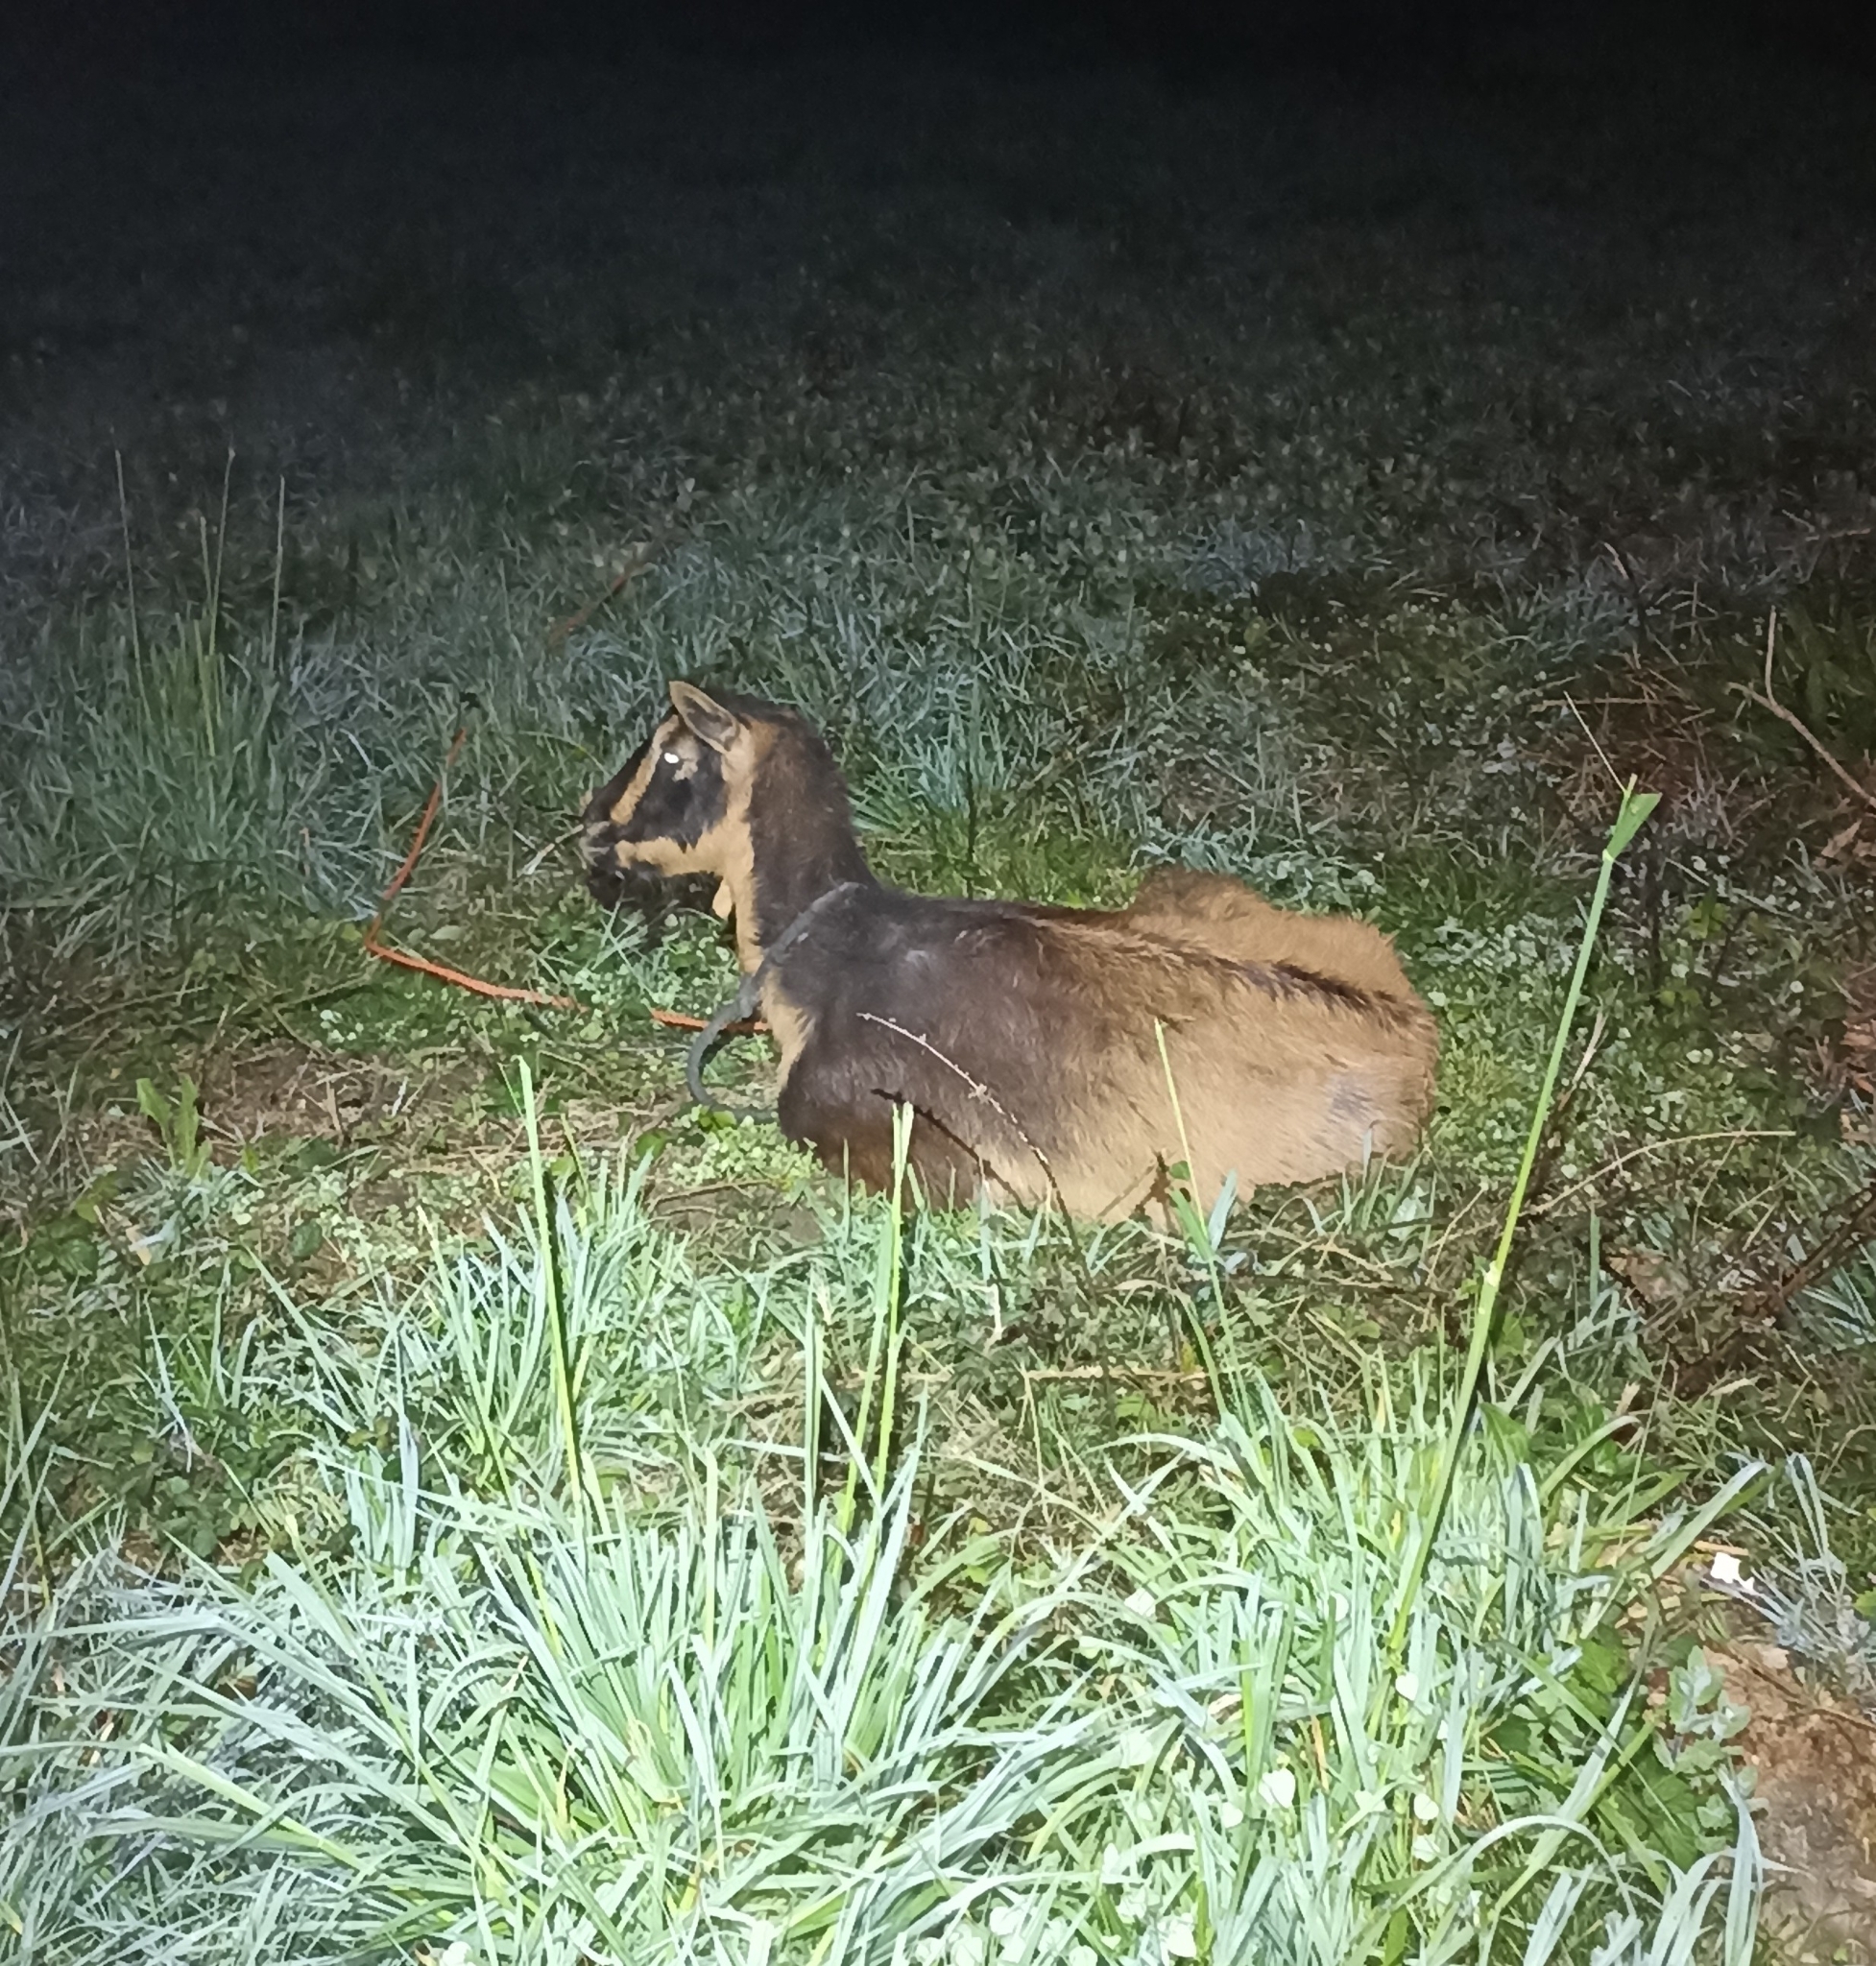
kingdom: Animalia
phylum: Chordata
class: Mammalia
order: Artiodactyla
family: Bovidae
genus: Capra
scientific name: Capra hircus
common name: Domestic goat
